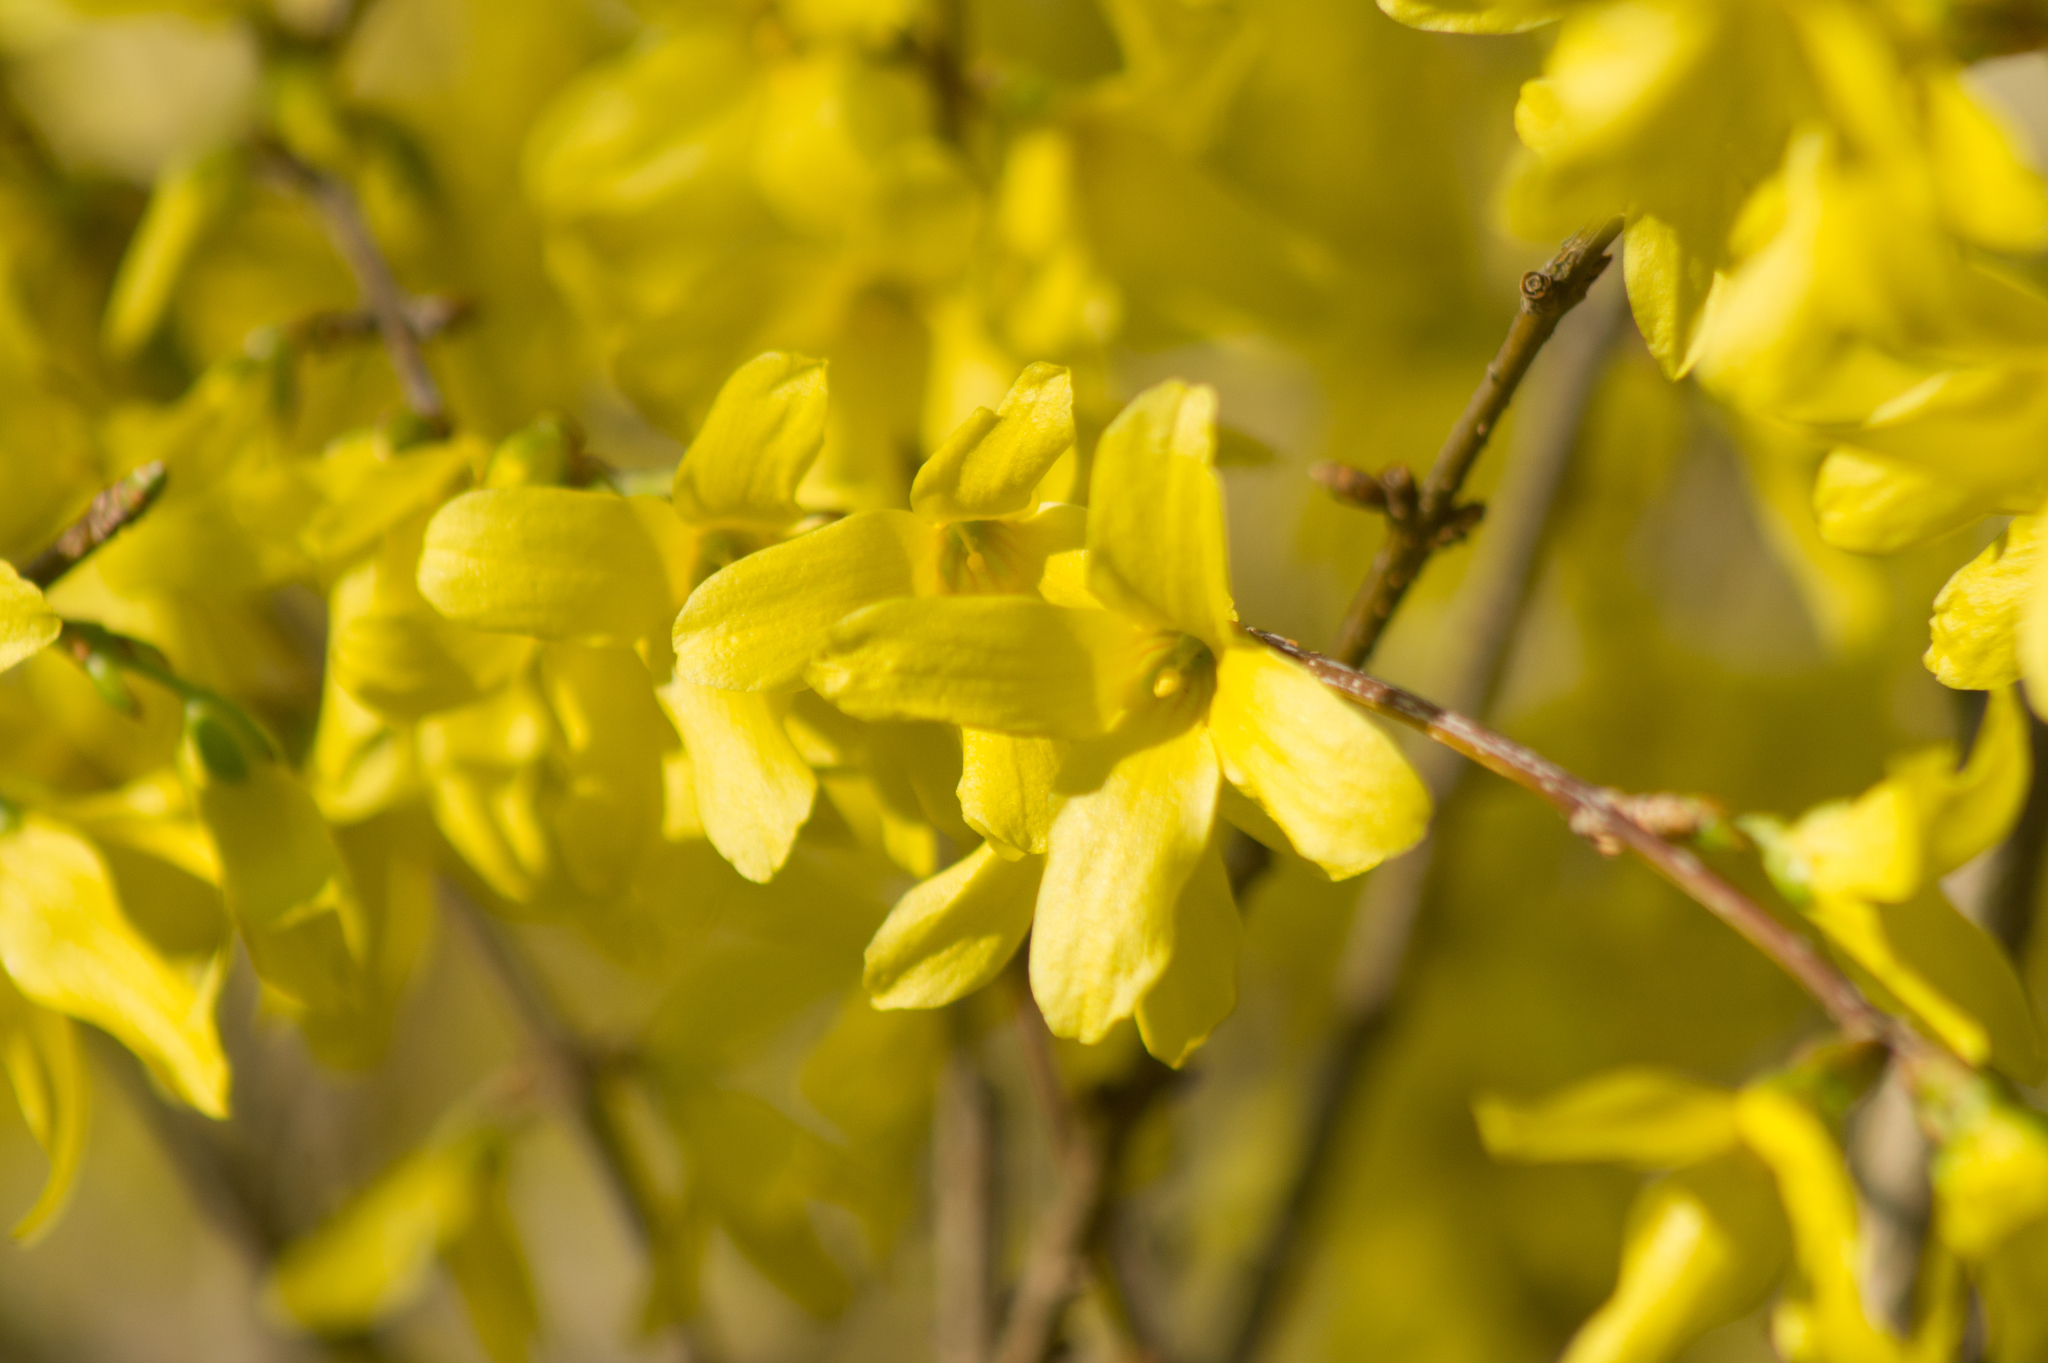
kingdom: Plantae
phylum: Tracheophyta
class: Magnoliopsida
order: Lamiales
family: Oleaceae
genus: Forsythia
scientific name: Forsythia intermedia
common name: Forsythia
